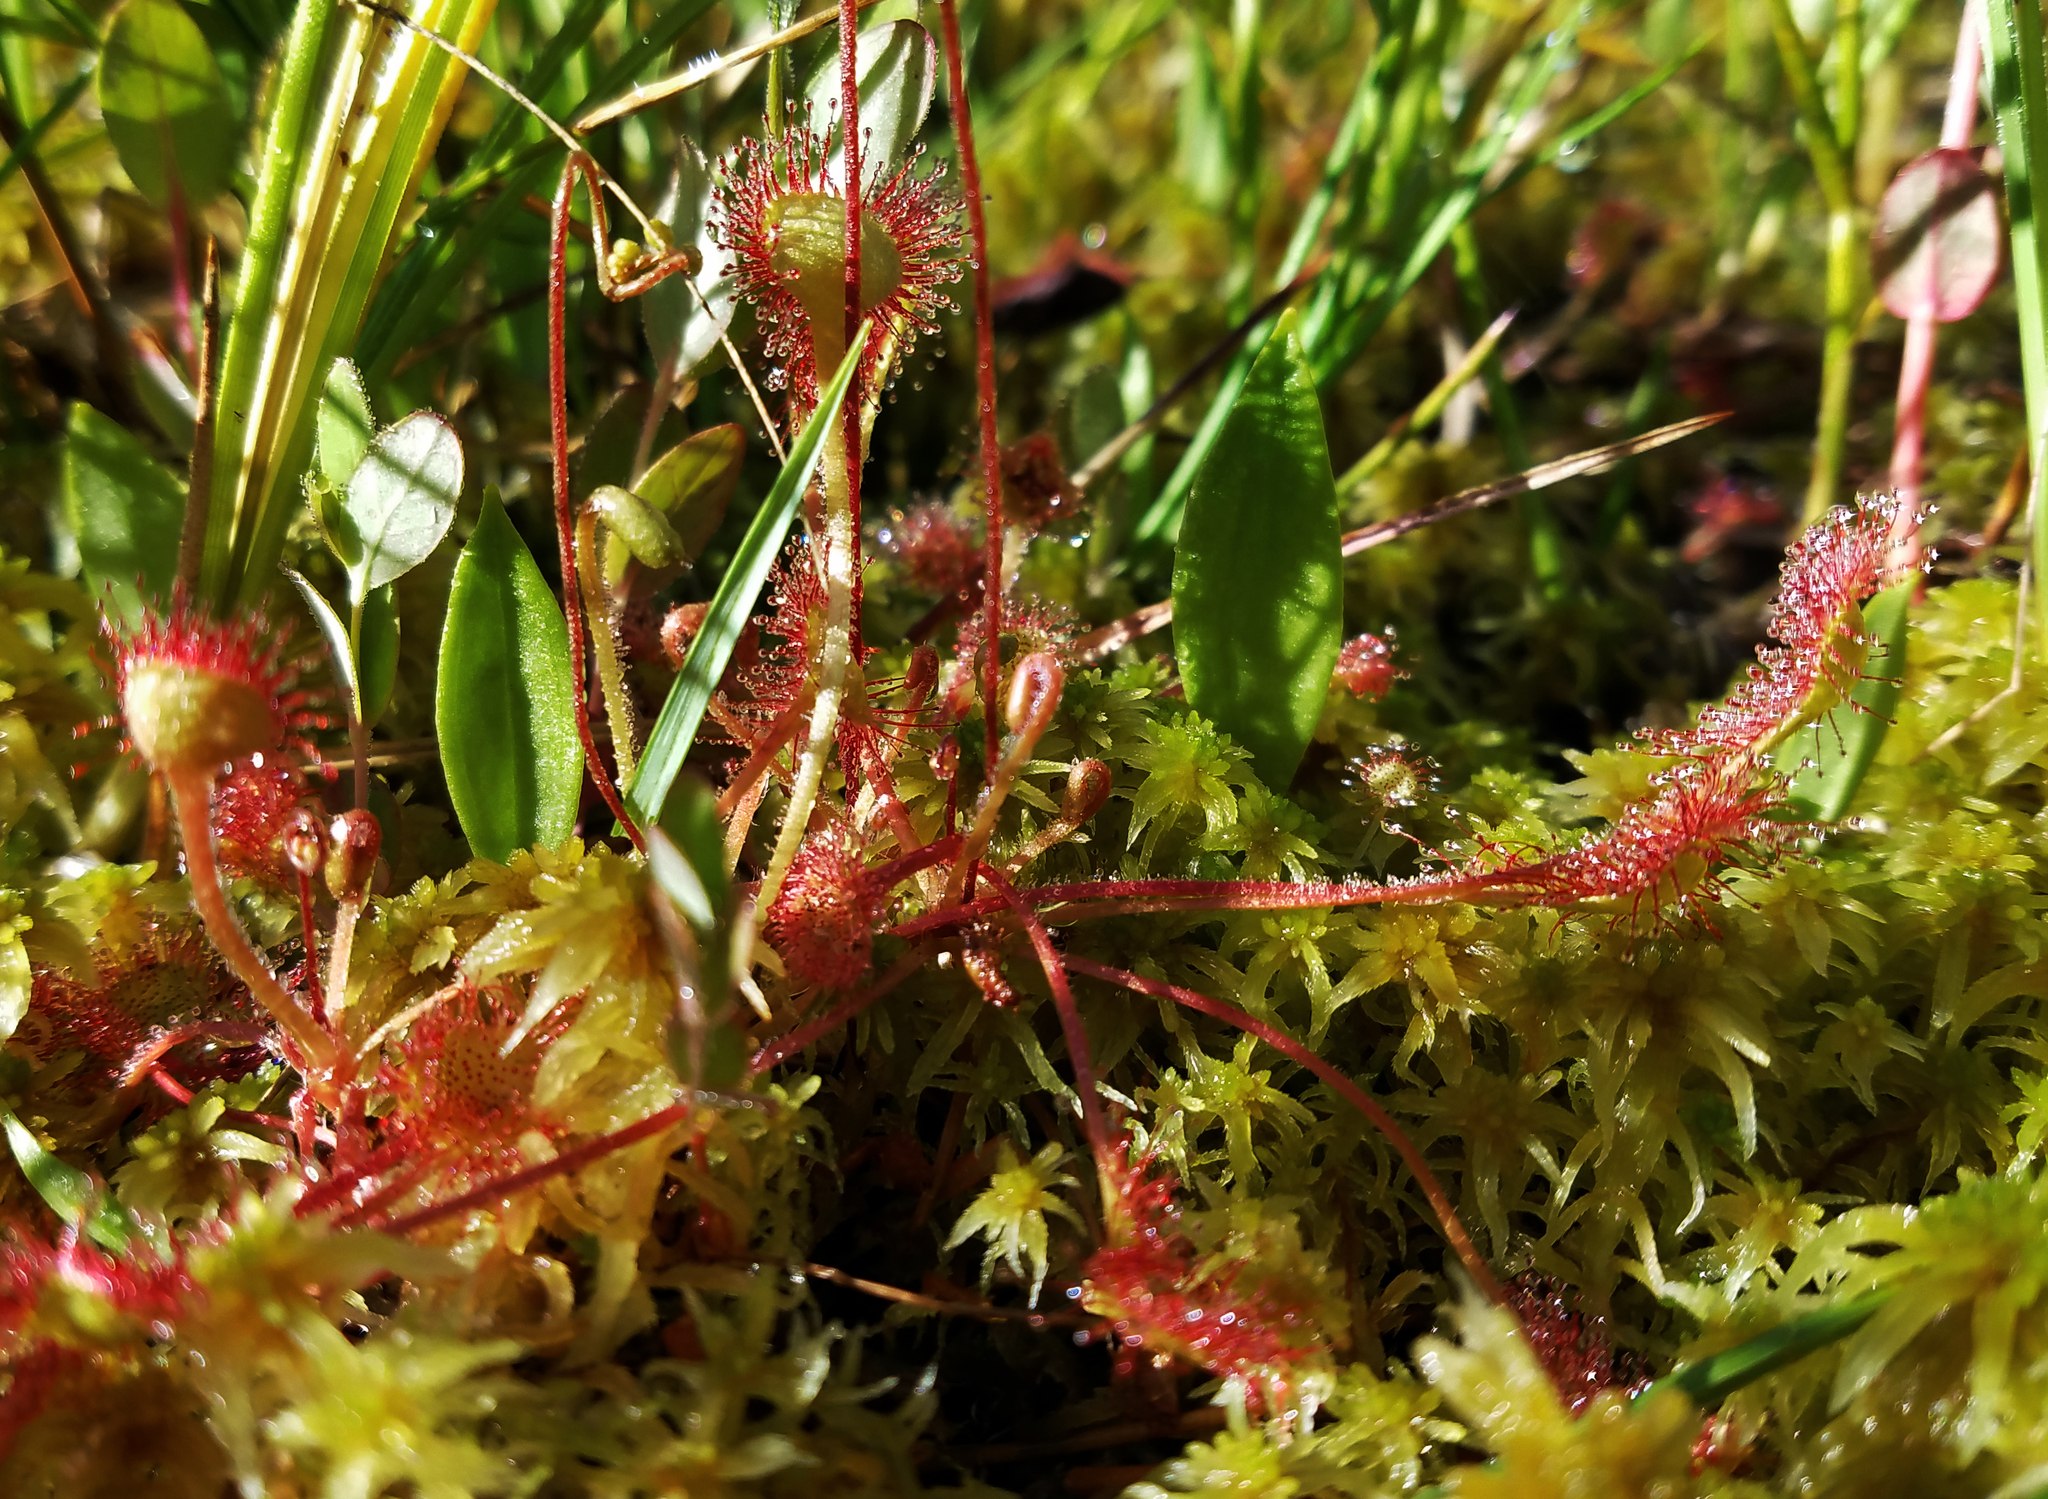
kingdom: Plantae
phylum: Tracheophyta
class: Magnoliopsida
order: Caryophyllales
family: Droseraceae
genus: Drosera
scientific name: Drosera rotundifolia
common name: Round-leaved sundew
